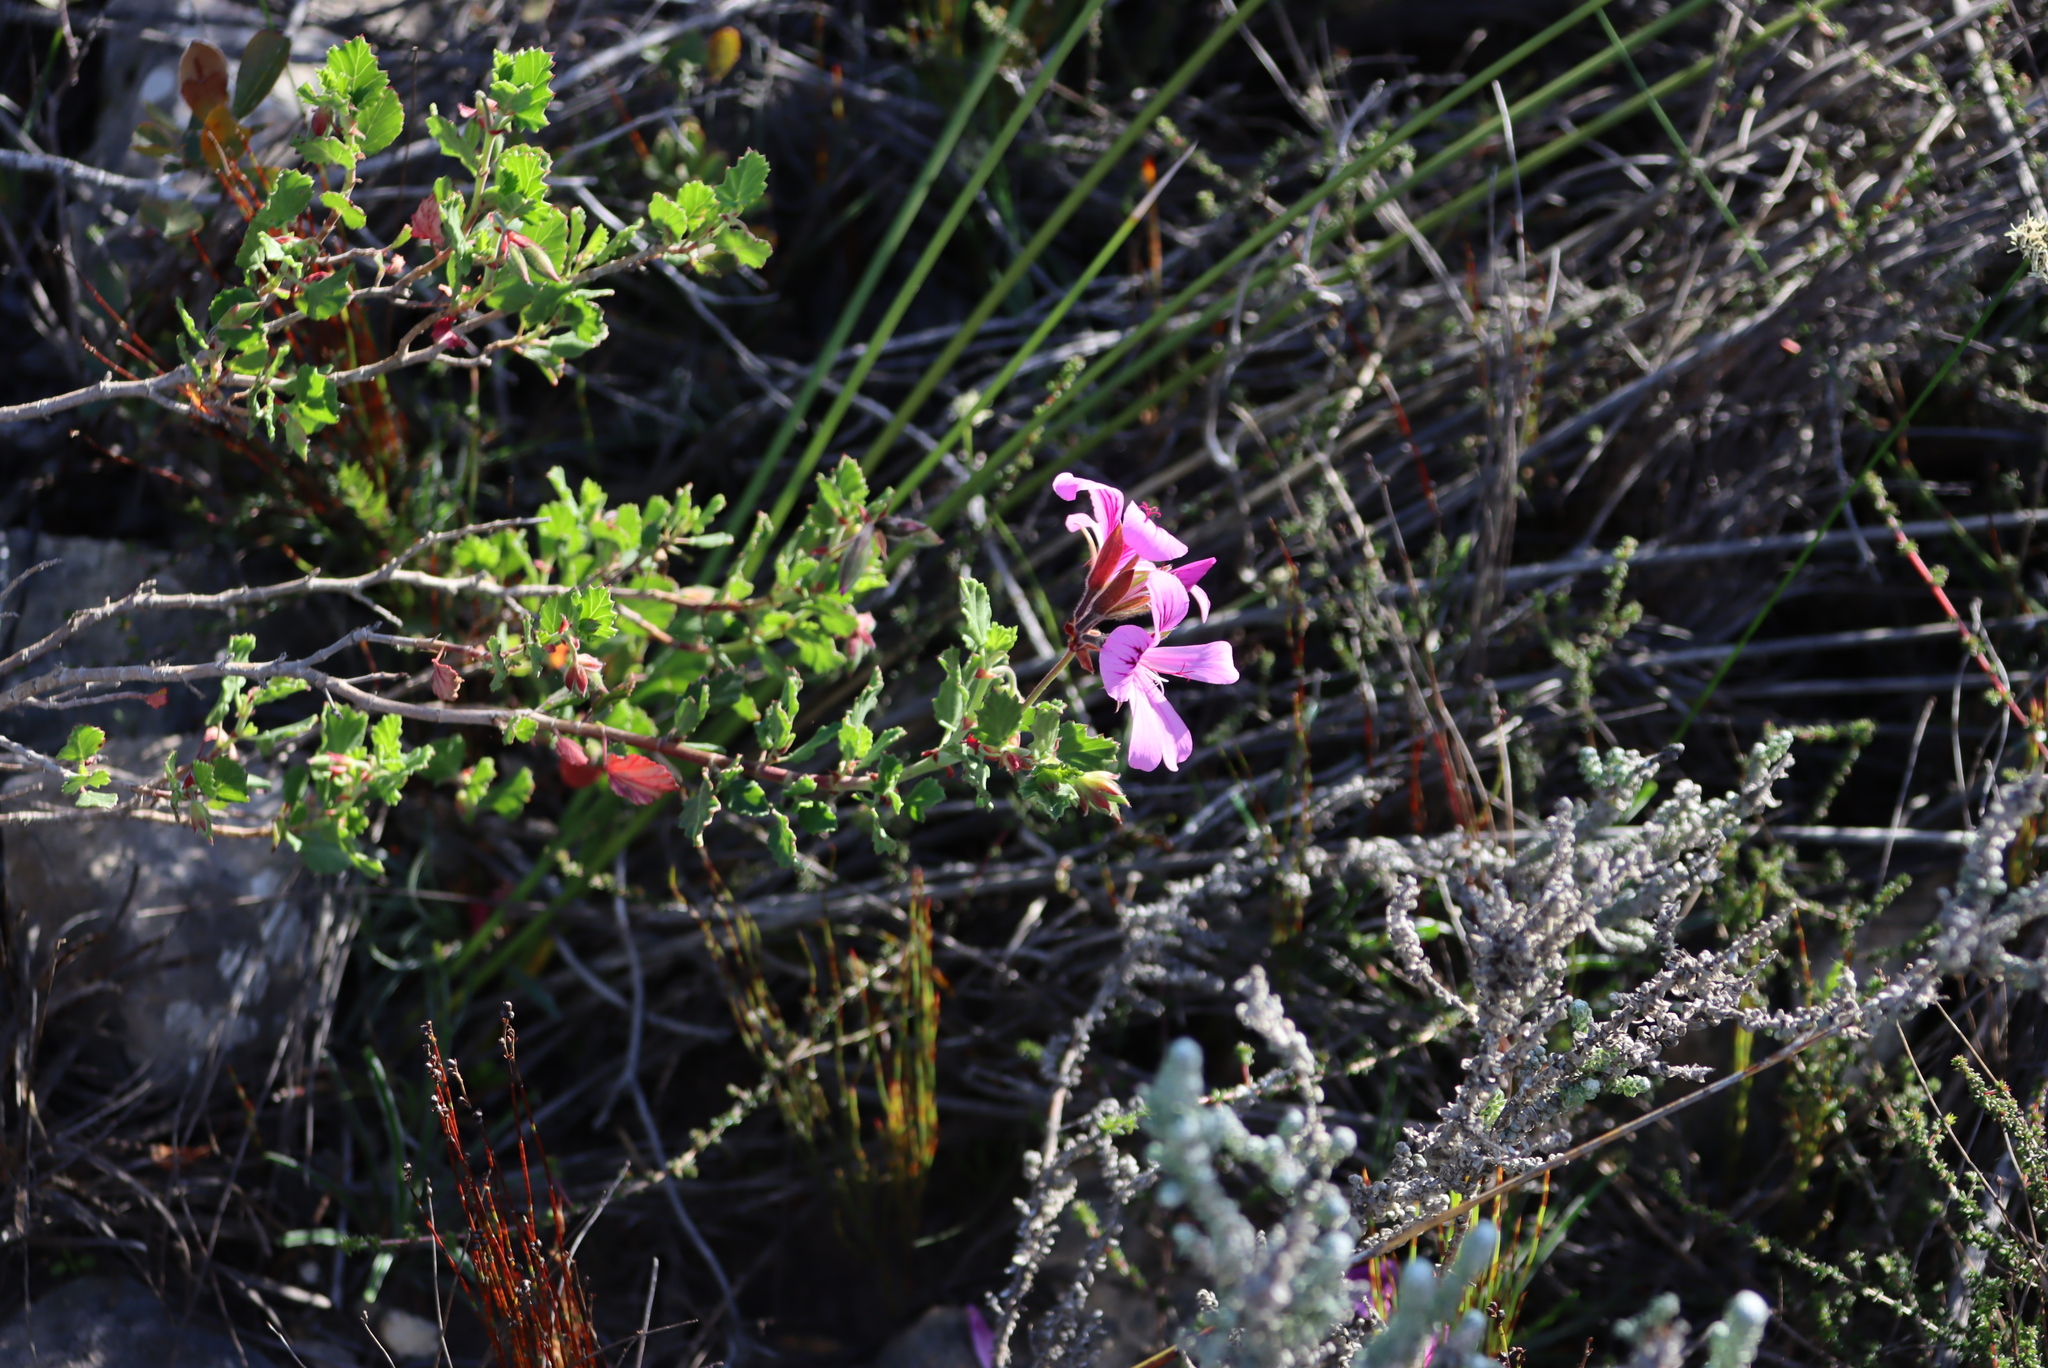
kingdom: Plantae
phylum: Tracheophyta
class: Magnoliopsida
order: Geraniales
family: Geraniaceae
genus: Pelargonium
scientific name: Pelargonium betulinum
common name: Birch-leaf pelargonium
